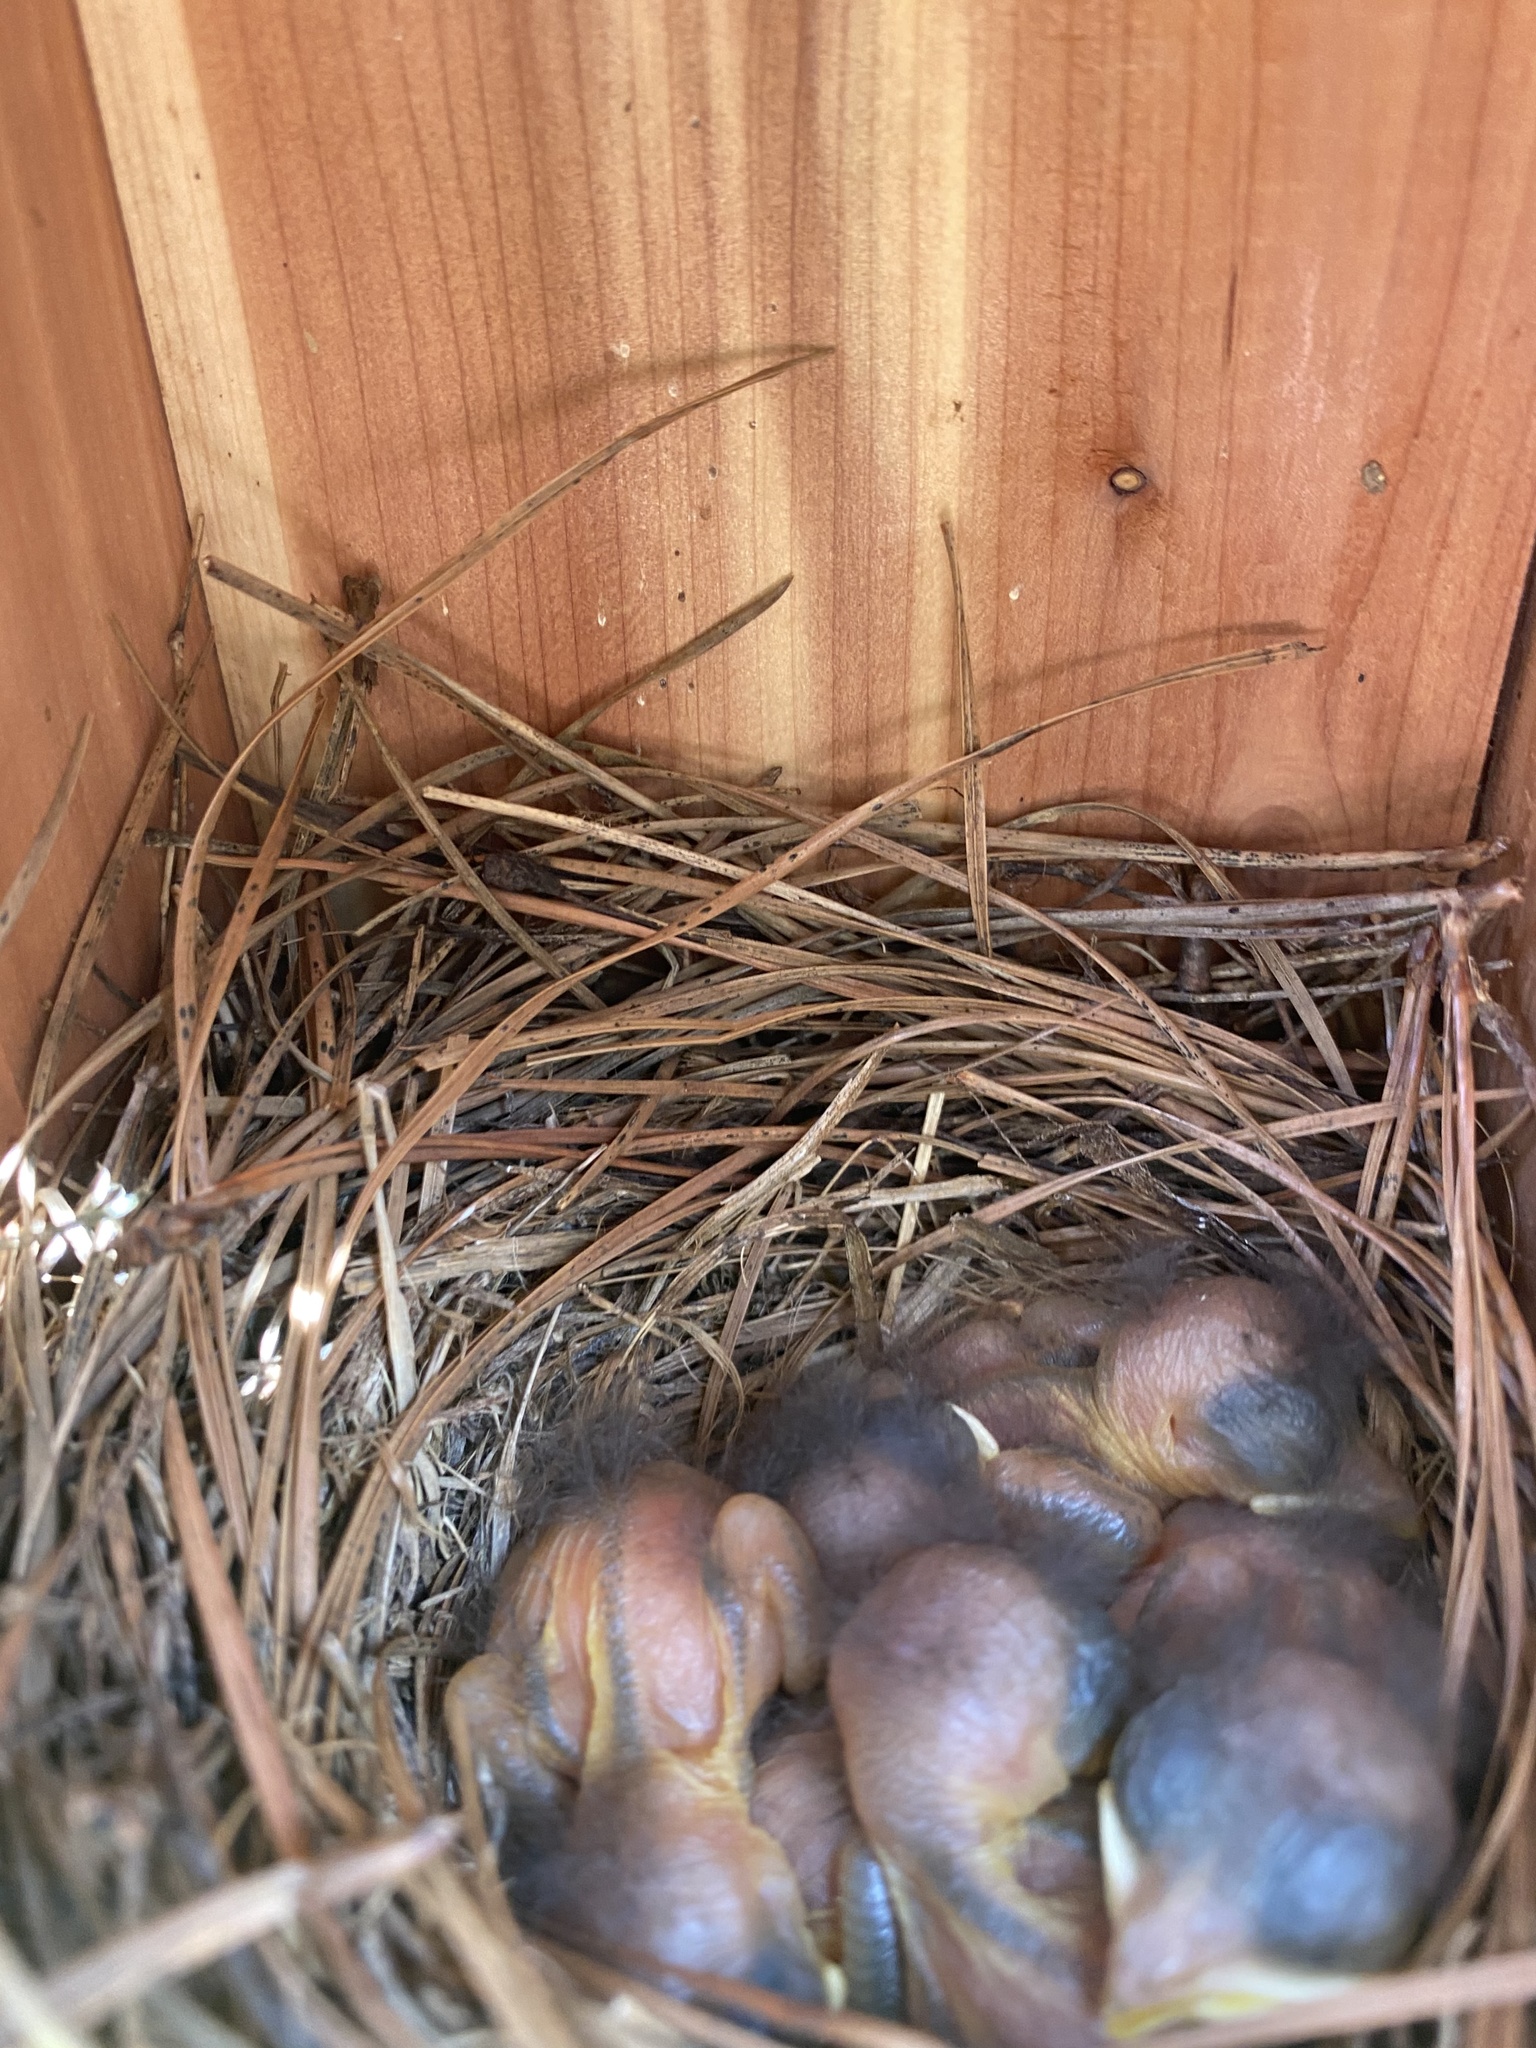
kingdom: Animalia
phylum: Chordata
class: Aves
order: Passeriformes
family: Turdidae
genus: Sialia
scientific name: Sialia sialis
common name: Eastern bluebird
